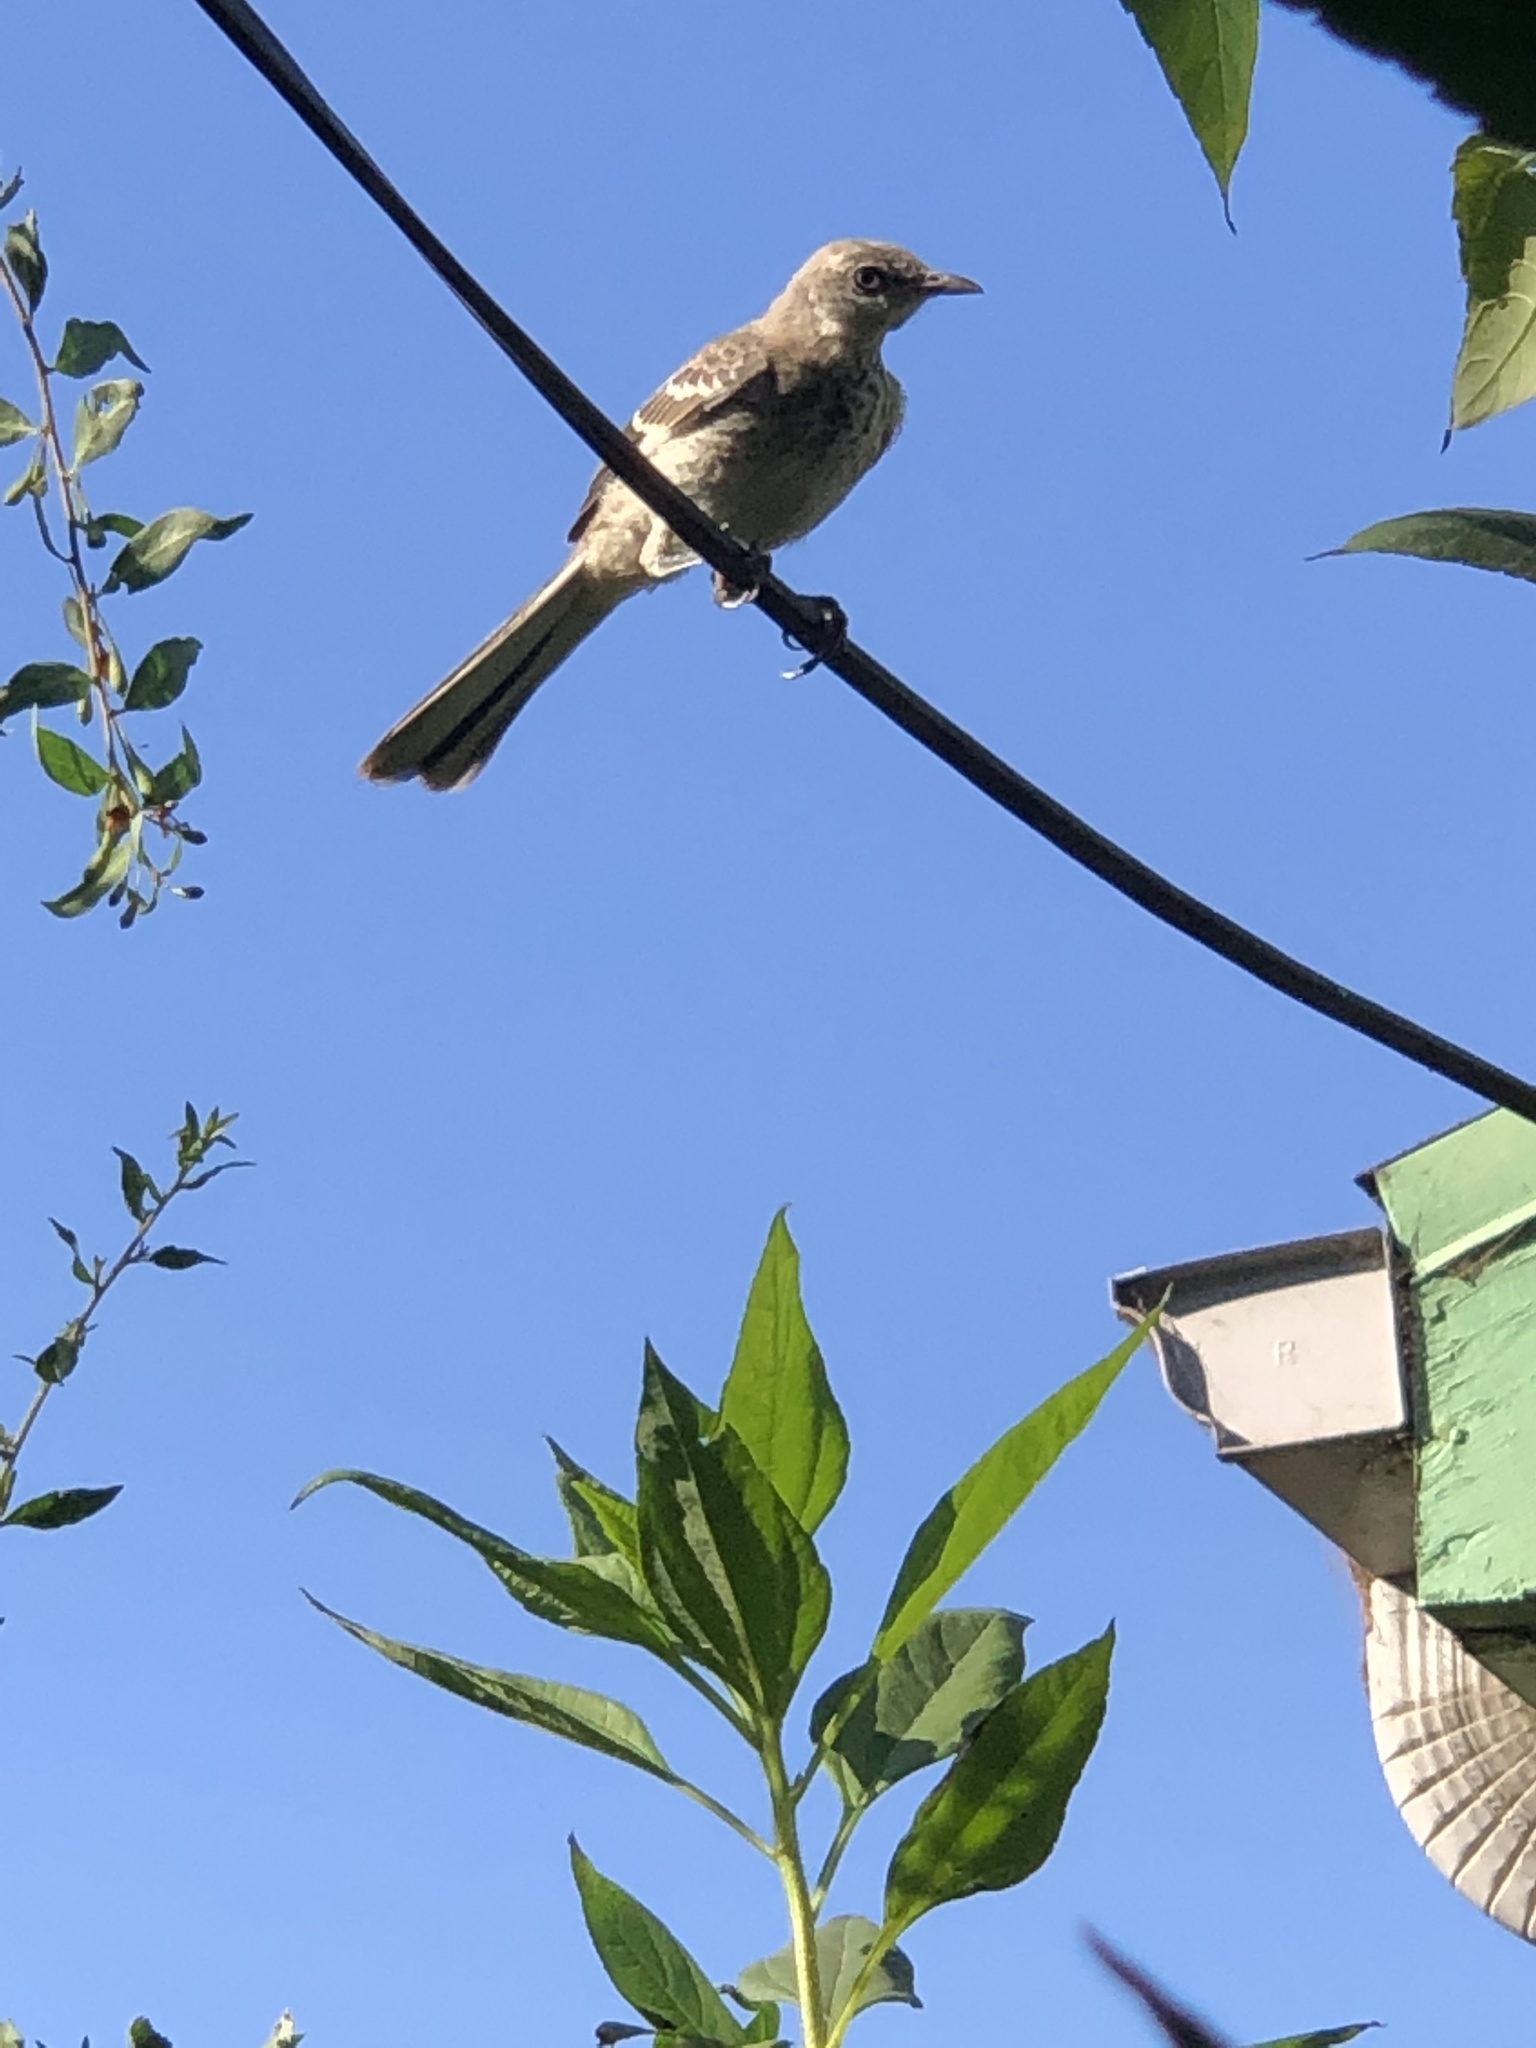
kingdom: Animalia
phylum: Chordata
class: Aves
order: Passeriformes
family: Mimidae
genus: Mimus
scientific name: Mimus polyglottos
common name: Northern mockingbird
